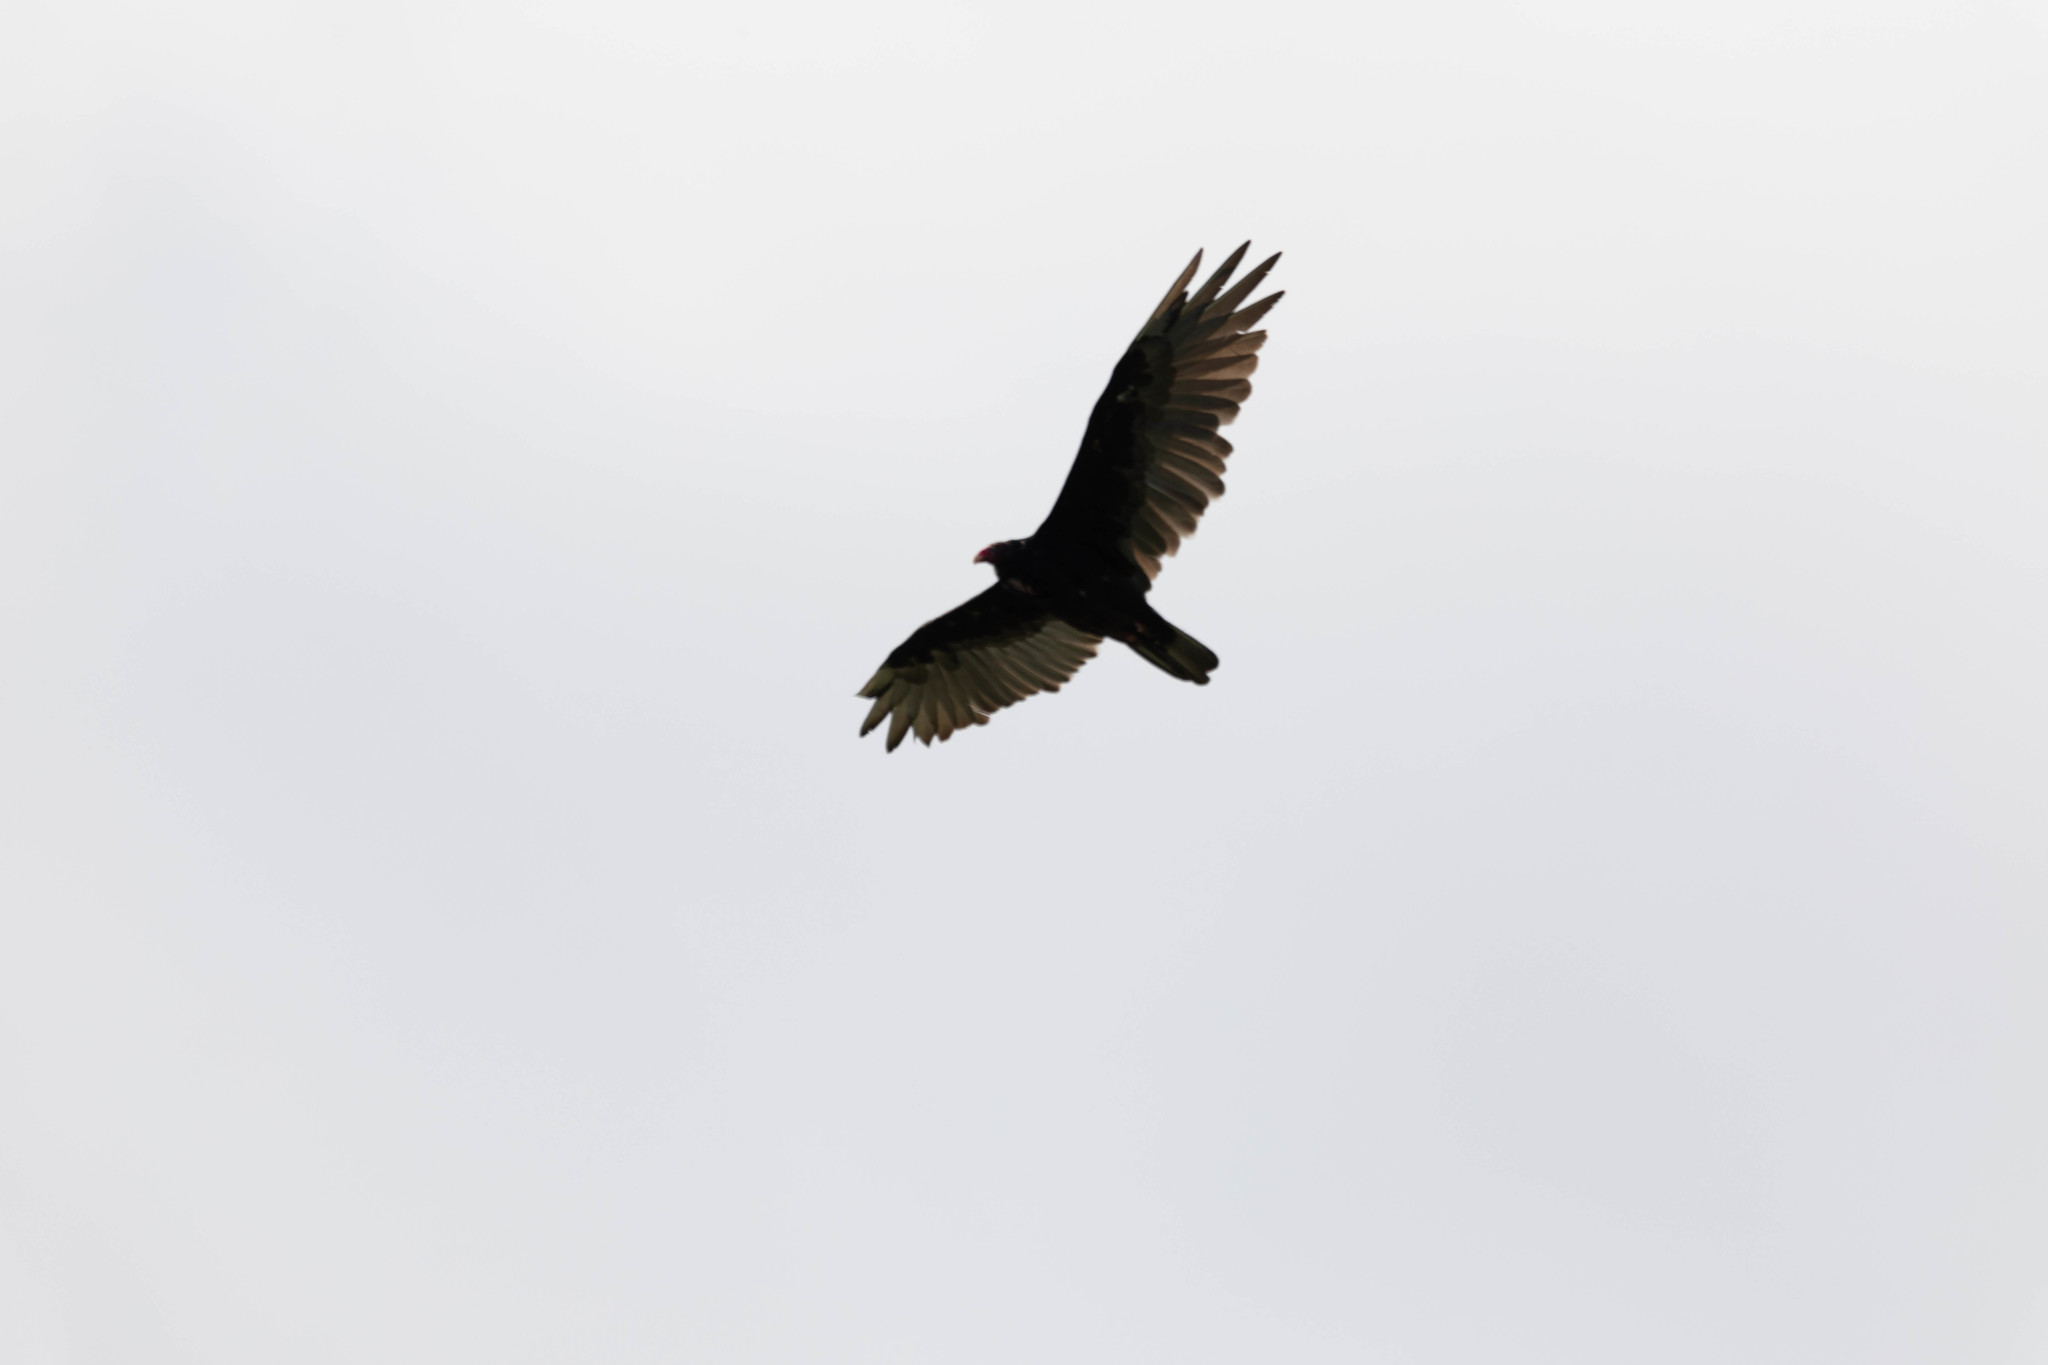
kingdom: Animalia
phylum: Chordata
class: Aves
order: Accipitriformes
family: Cathartidae
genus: Cathartes
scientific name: Cathartes aura
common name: Turkey vulture
